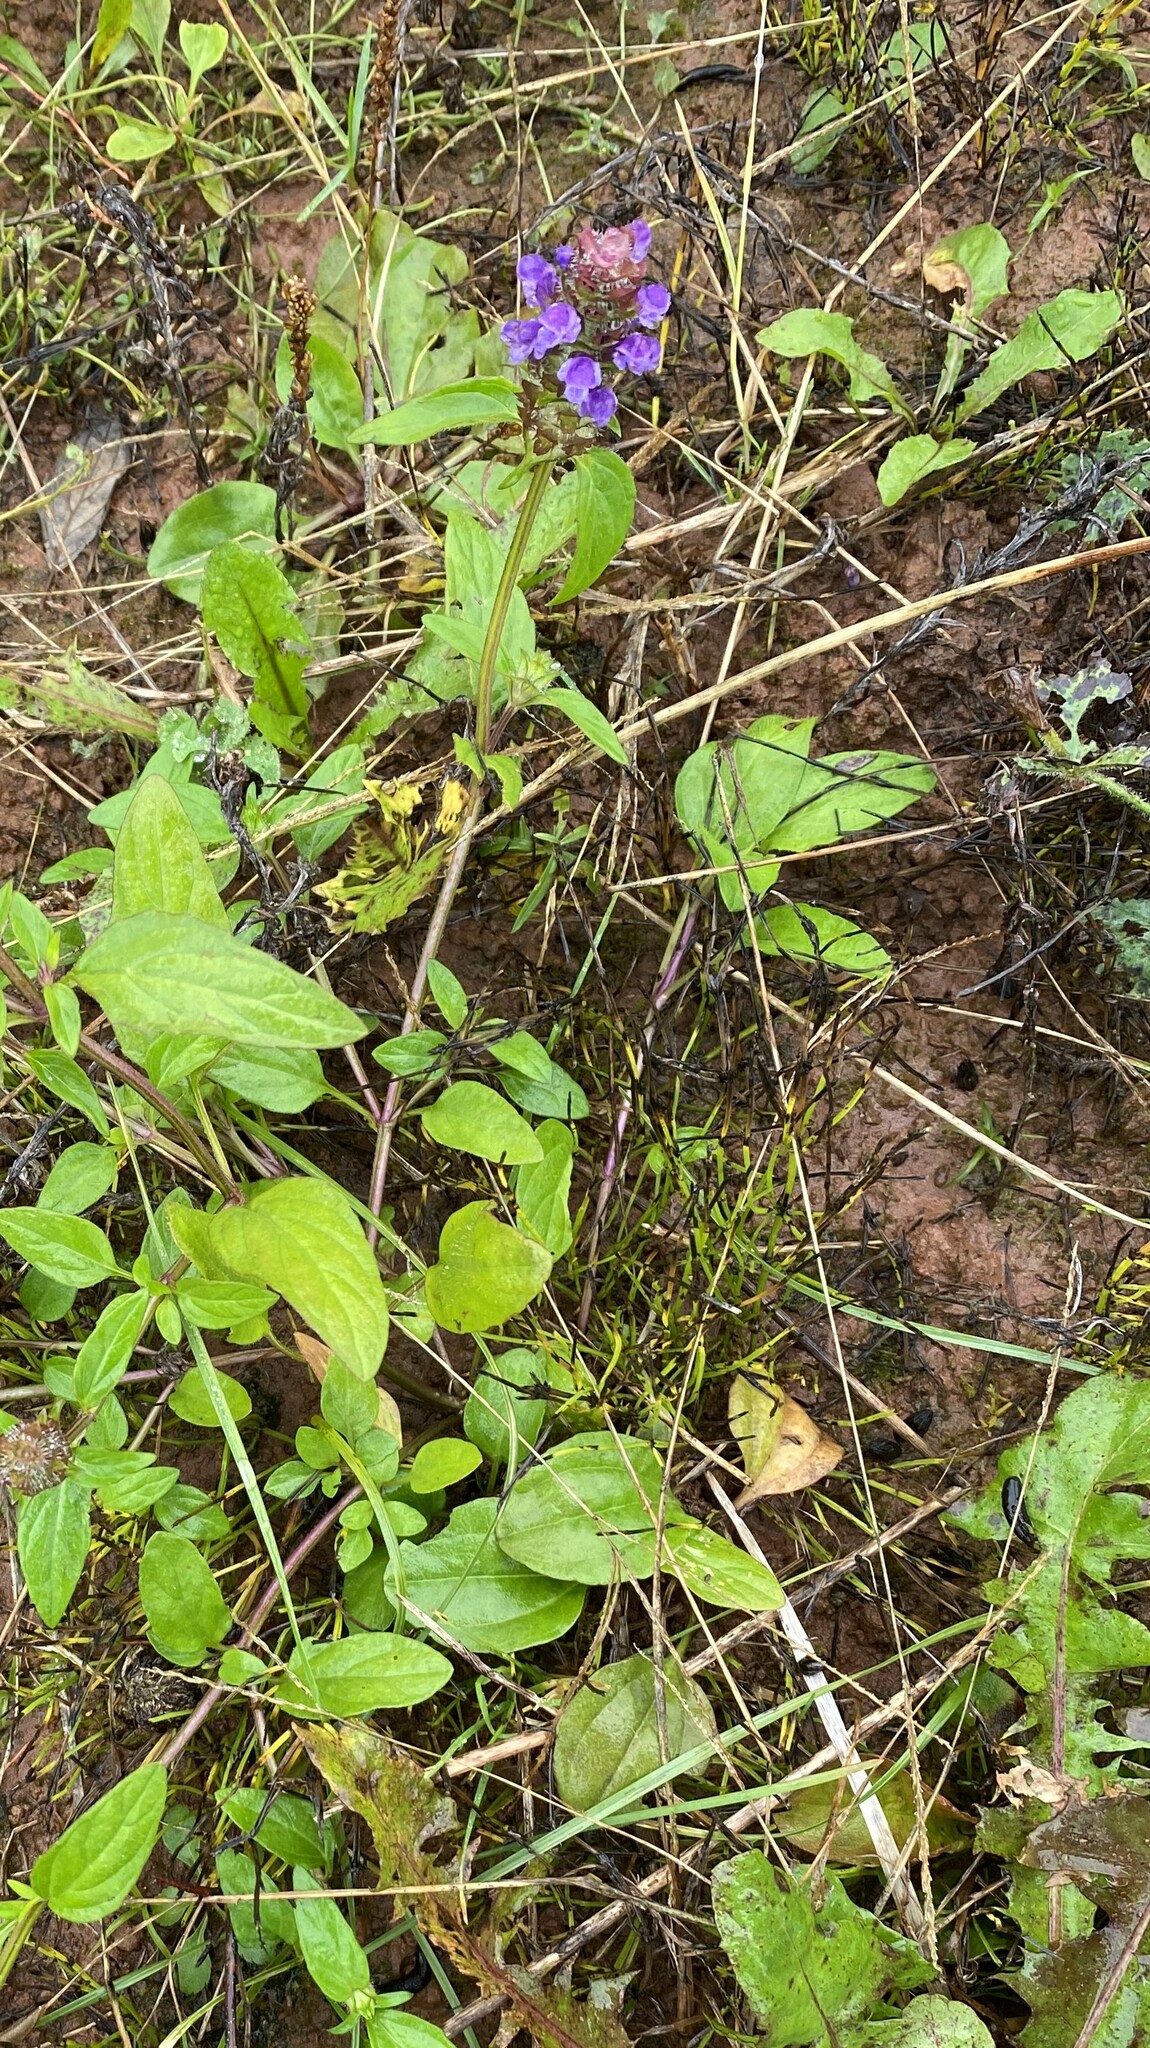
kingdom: Plantae
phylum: Tracheophyta
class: Magnoliopsida
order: Lamiales
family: Lamiaceae
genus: Prunella
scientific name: Prunella vulgaris
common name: Heal-all
